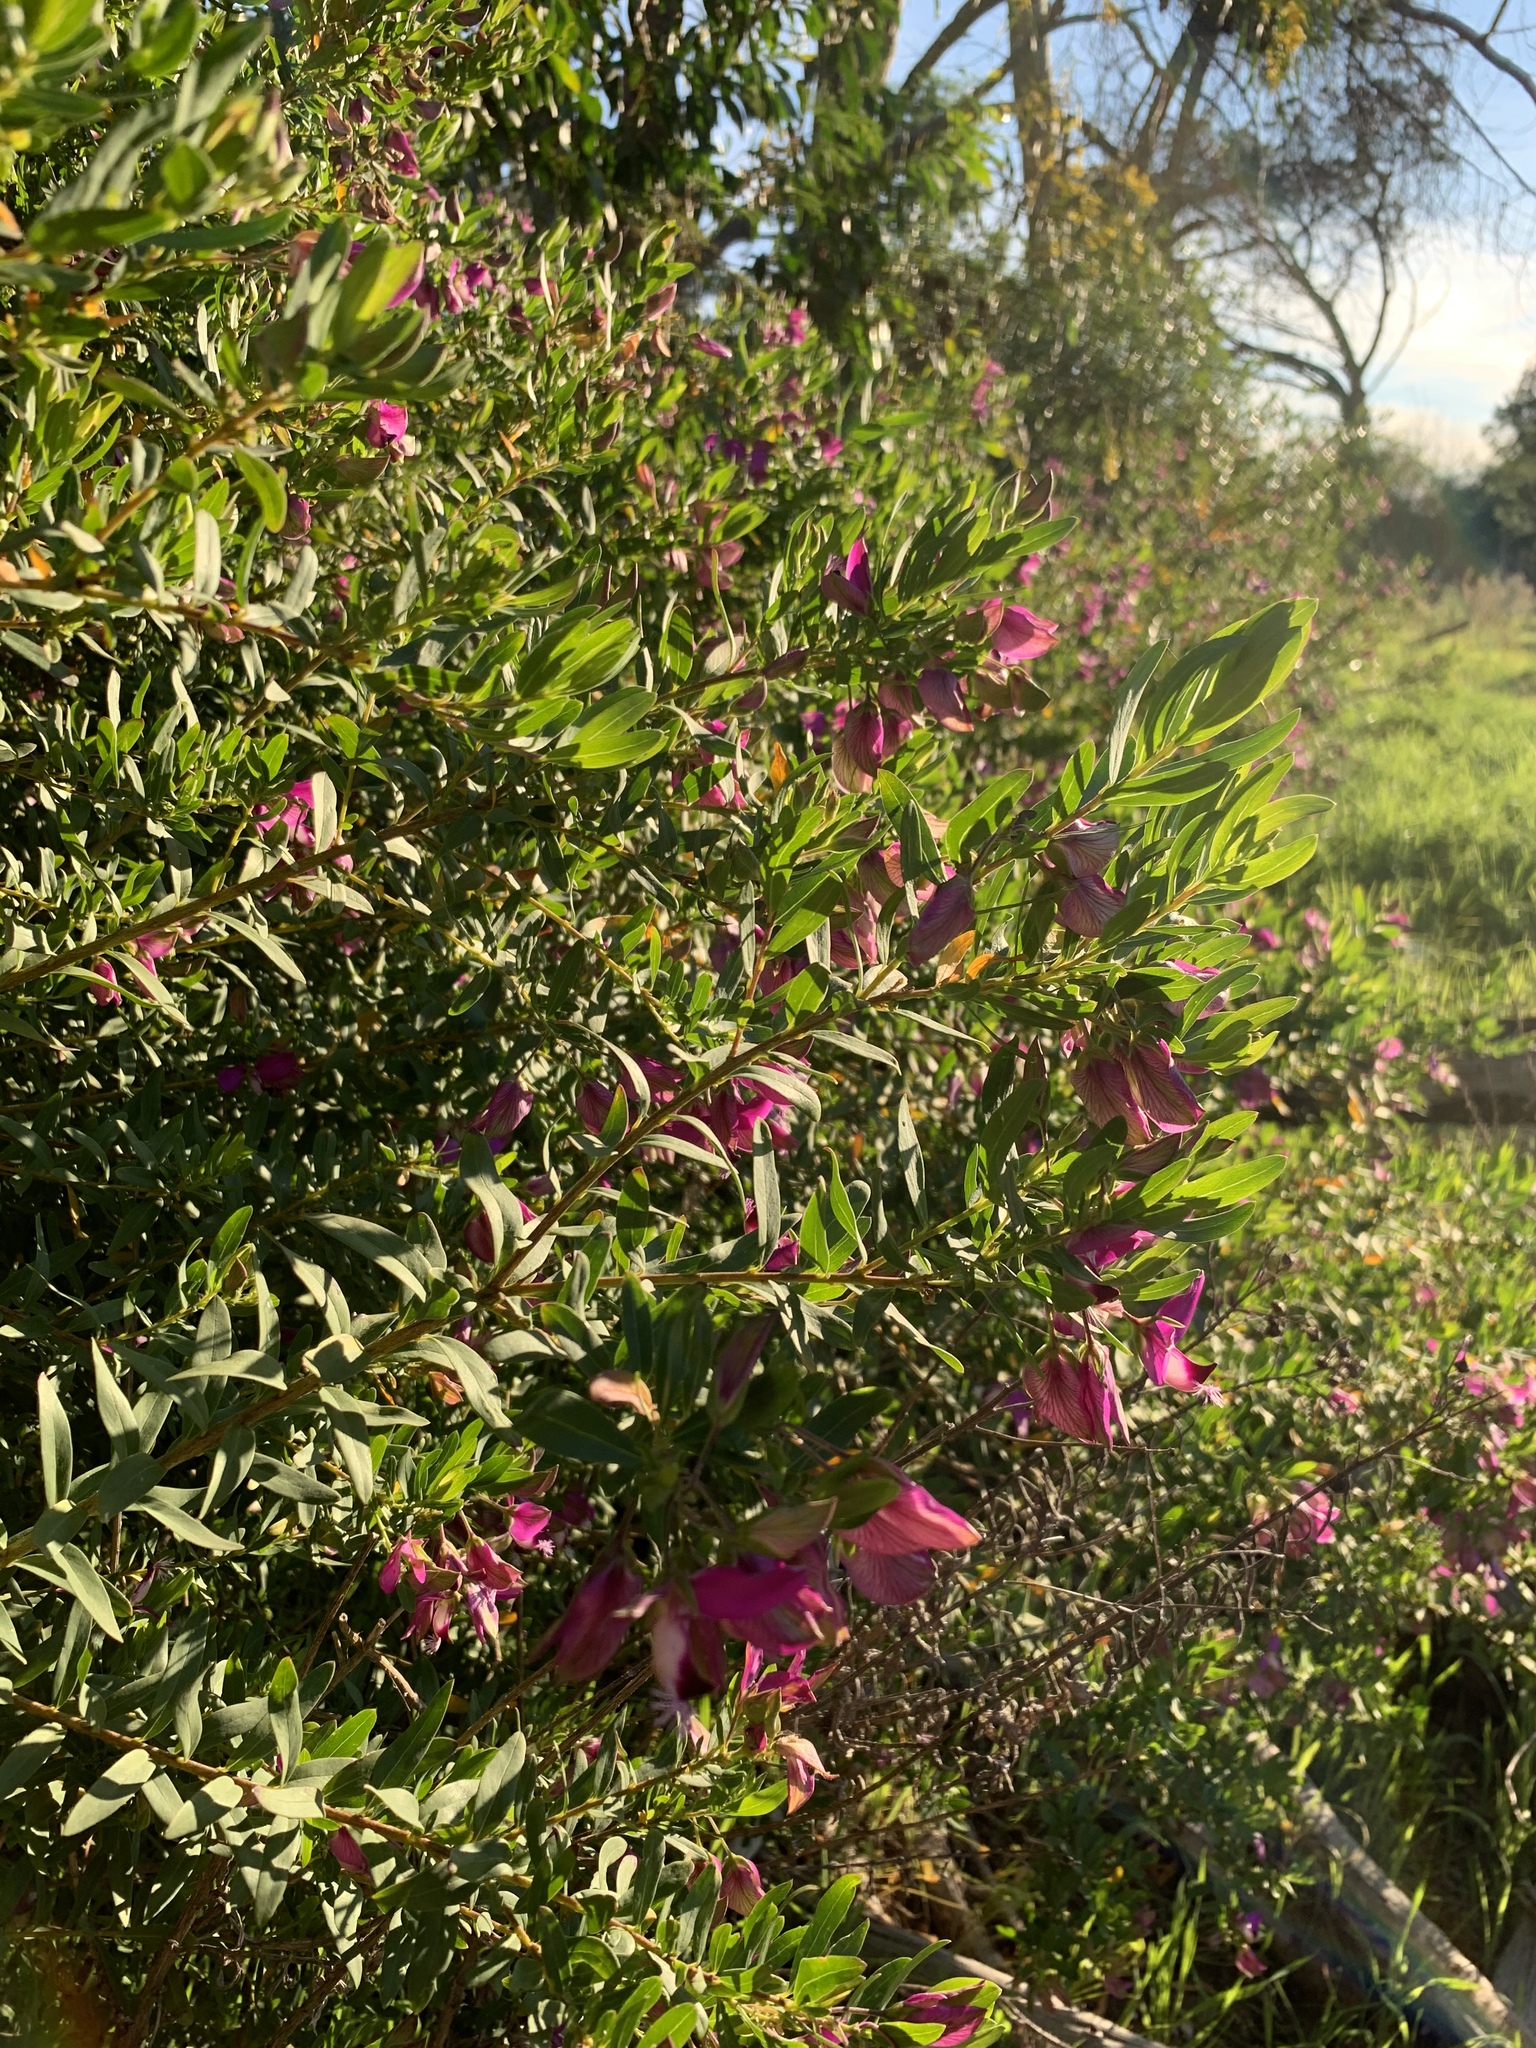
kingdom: Plantae
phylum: Tracheophyta
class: Magnoliopsida
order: Fabales
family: Polygalaceae
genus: Polygala
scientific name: Polygala myrtifolia
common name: Myrtle-leaf milkwort
